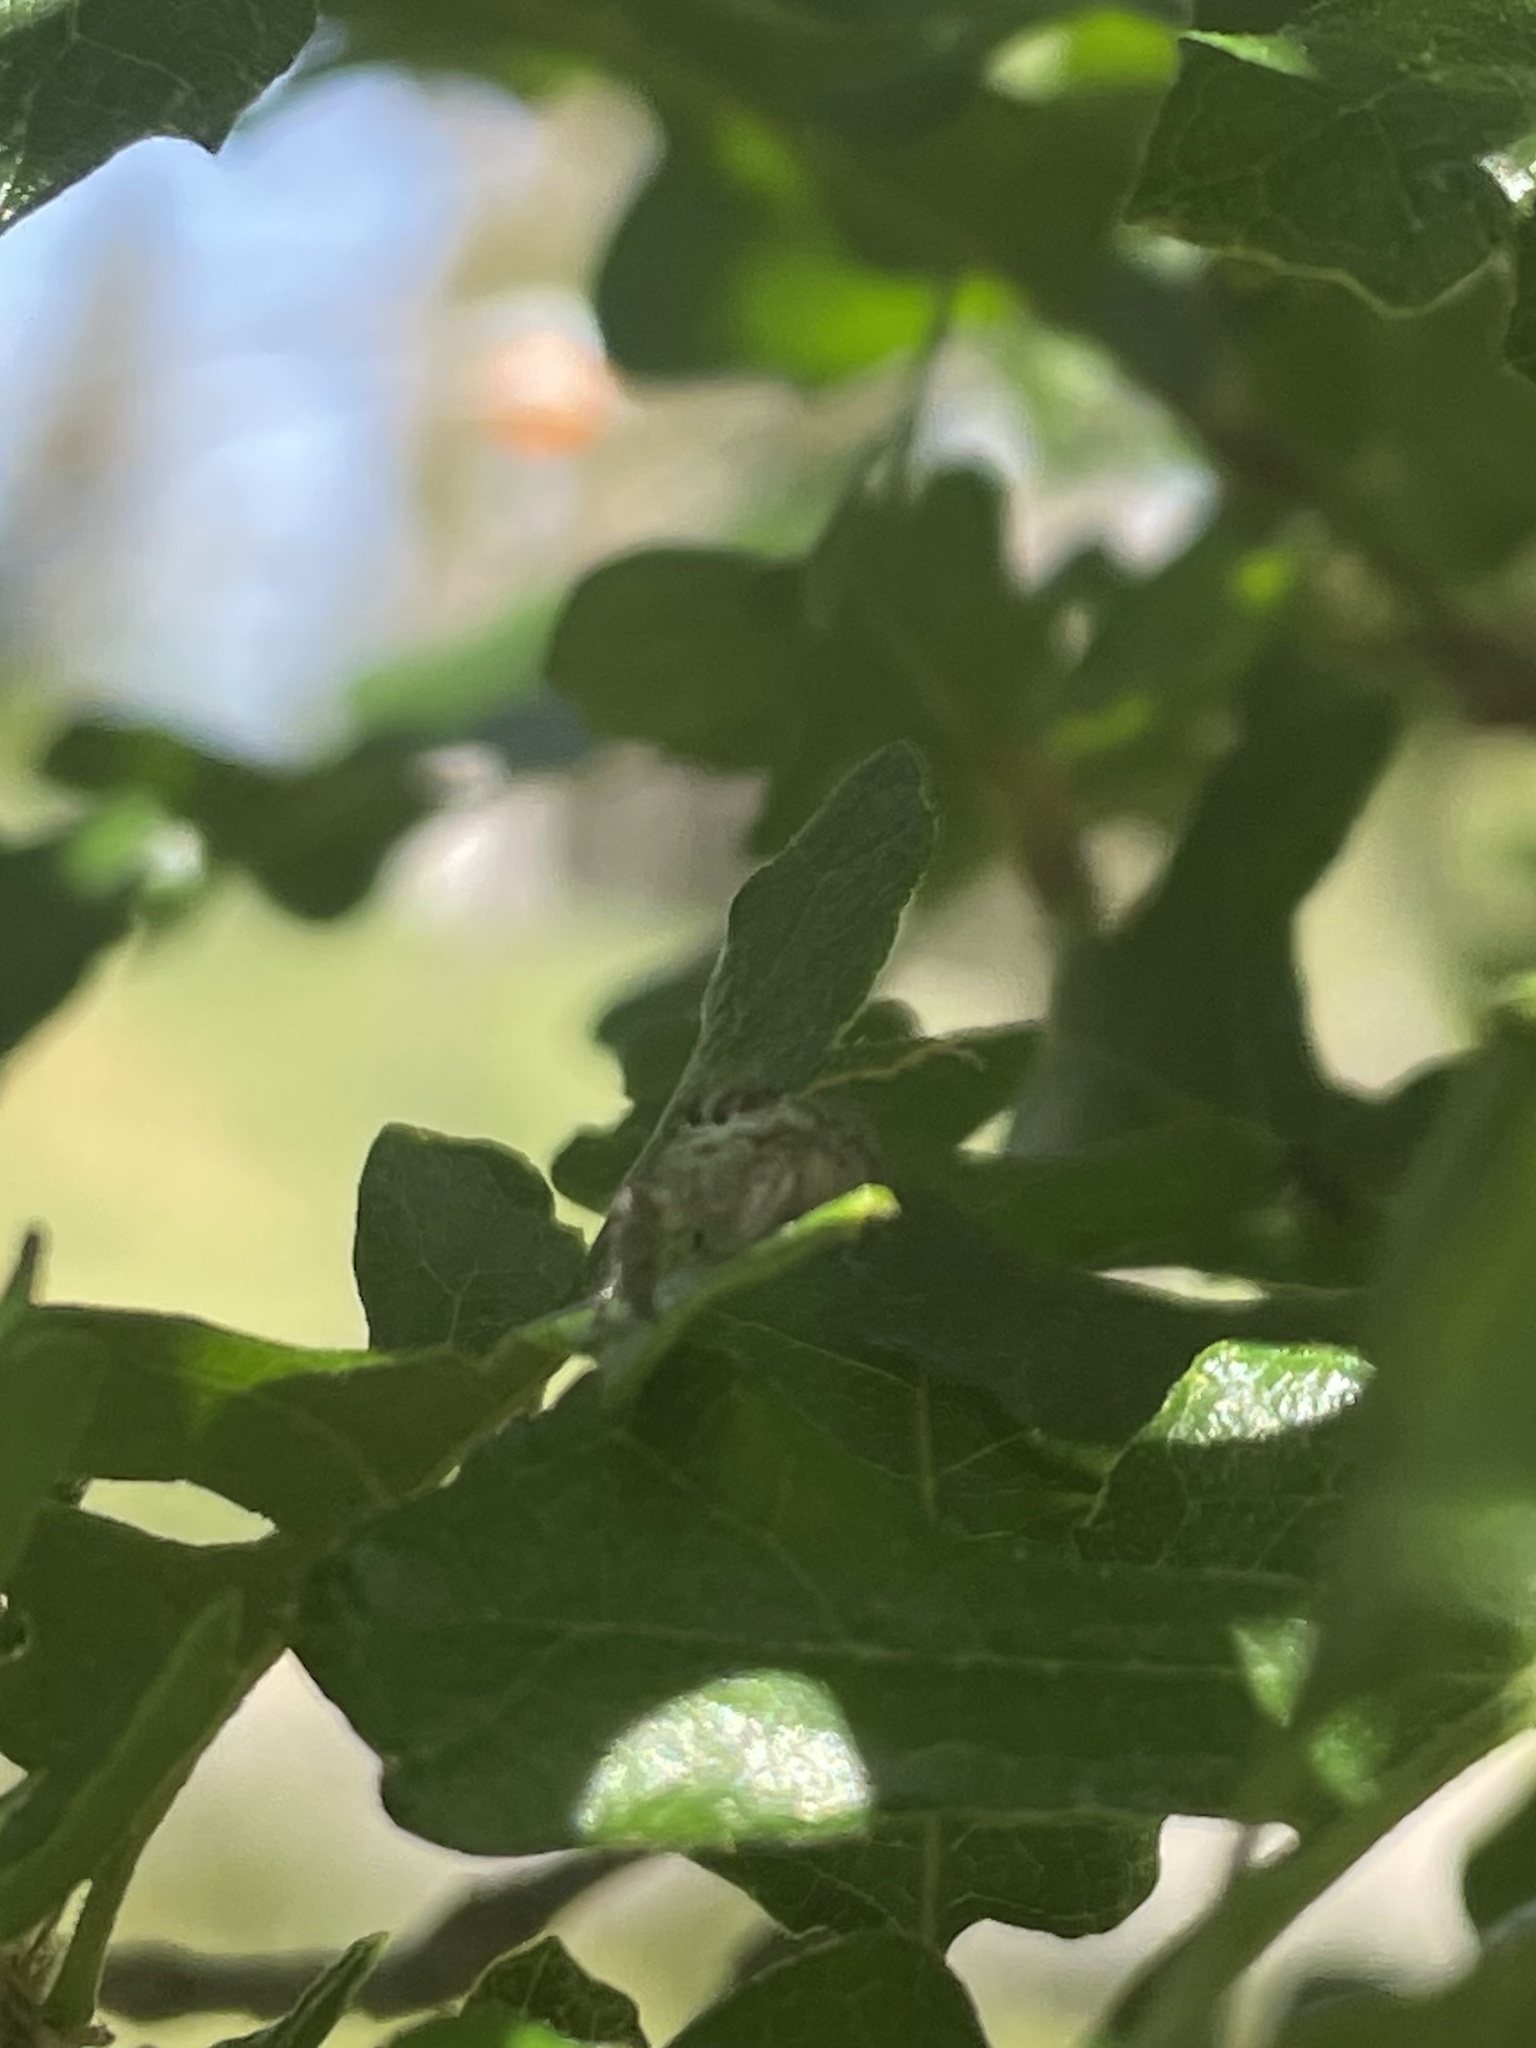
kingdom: Animalia
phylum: Arthropoda
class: Arachnida
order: Araneae
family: Salticidae
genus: Colonus
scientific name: Colonus hesperus
